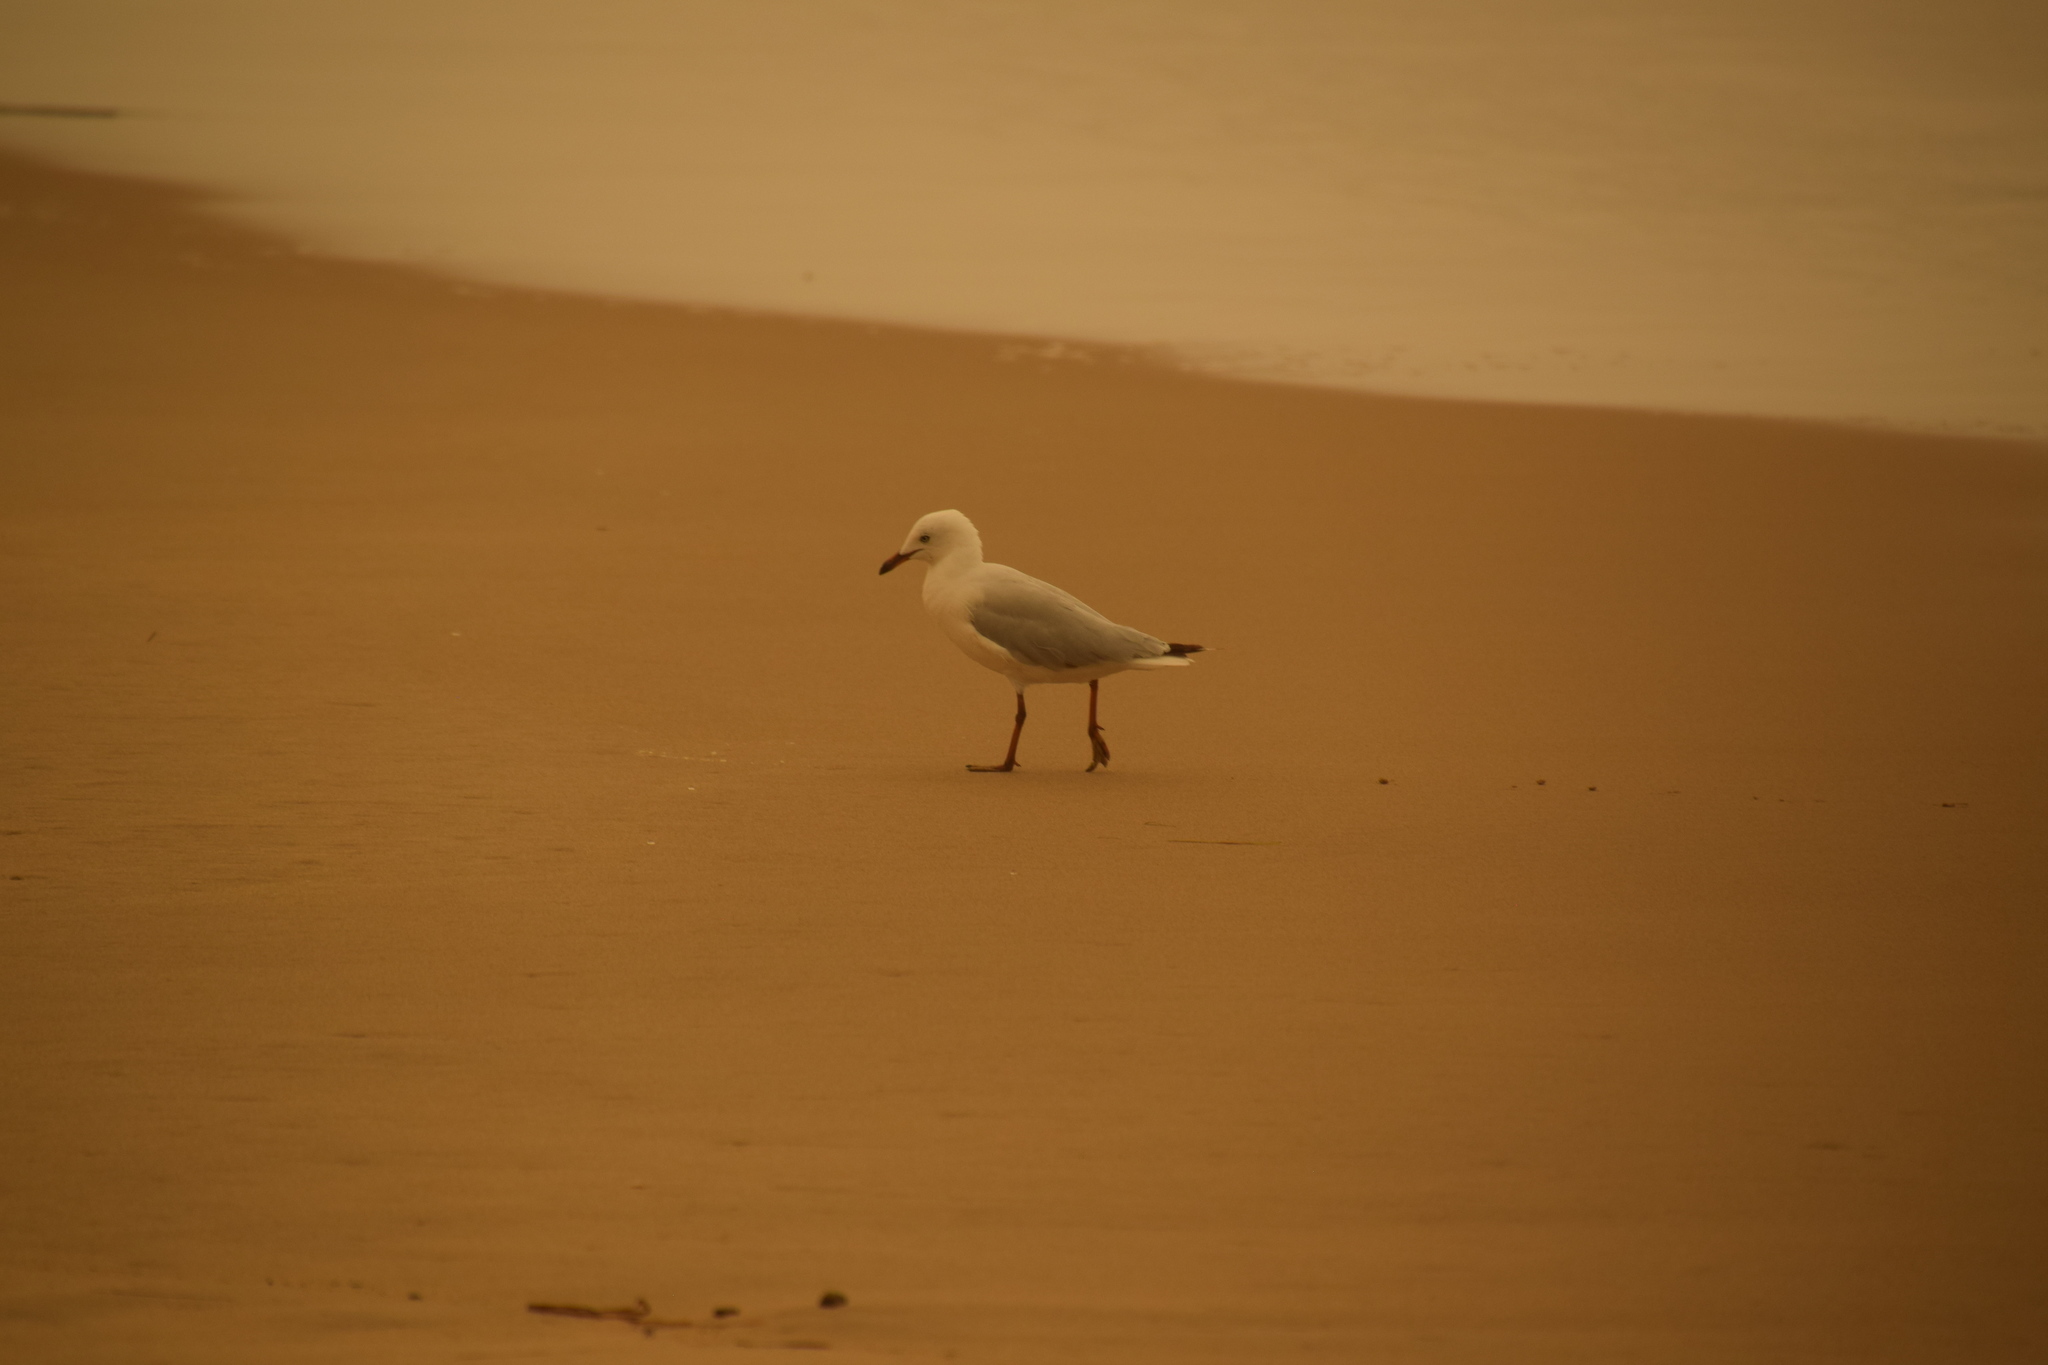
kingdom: Animalia
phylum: Chordata
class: Aves
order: Charadriiformes
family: Laridae
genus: Chroicocephalus
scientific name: Chroicocephalus novaehollandiae
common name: Silver gull
